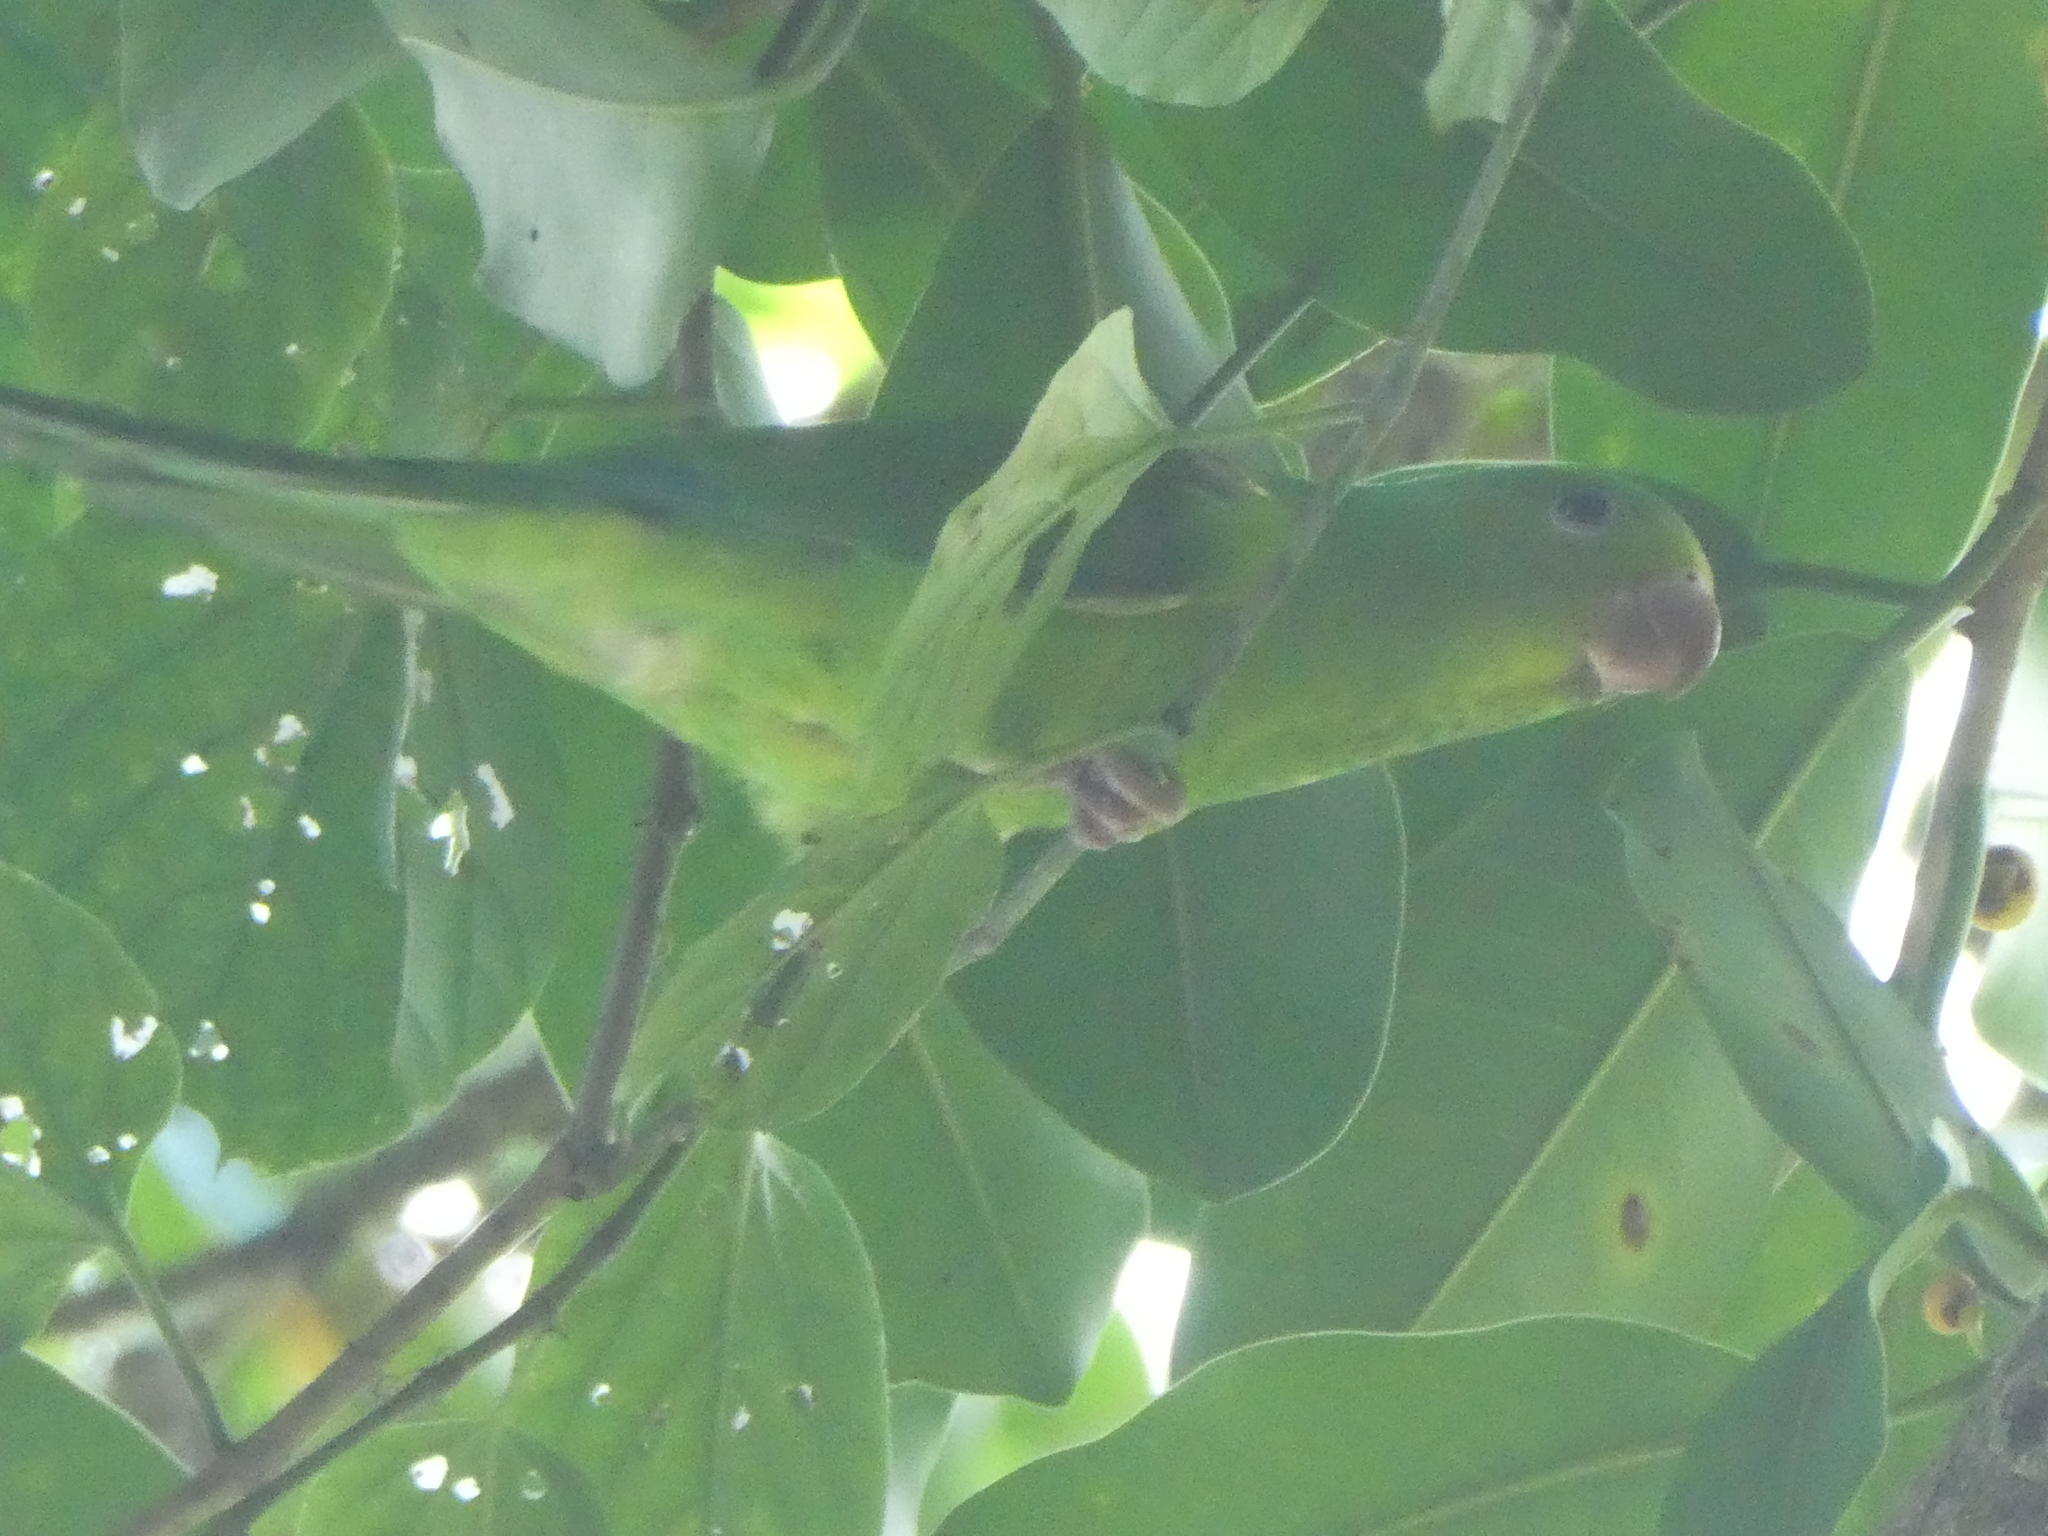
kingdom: Animalia
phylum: Chordata
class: Aves
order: Psittaciformes
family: Psittacidae
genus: Brotogeris
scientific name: Brotogeris tirica
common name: Plain parakeet
